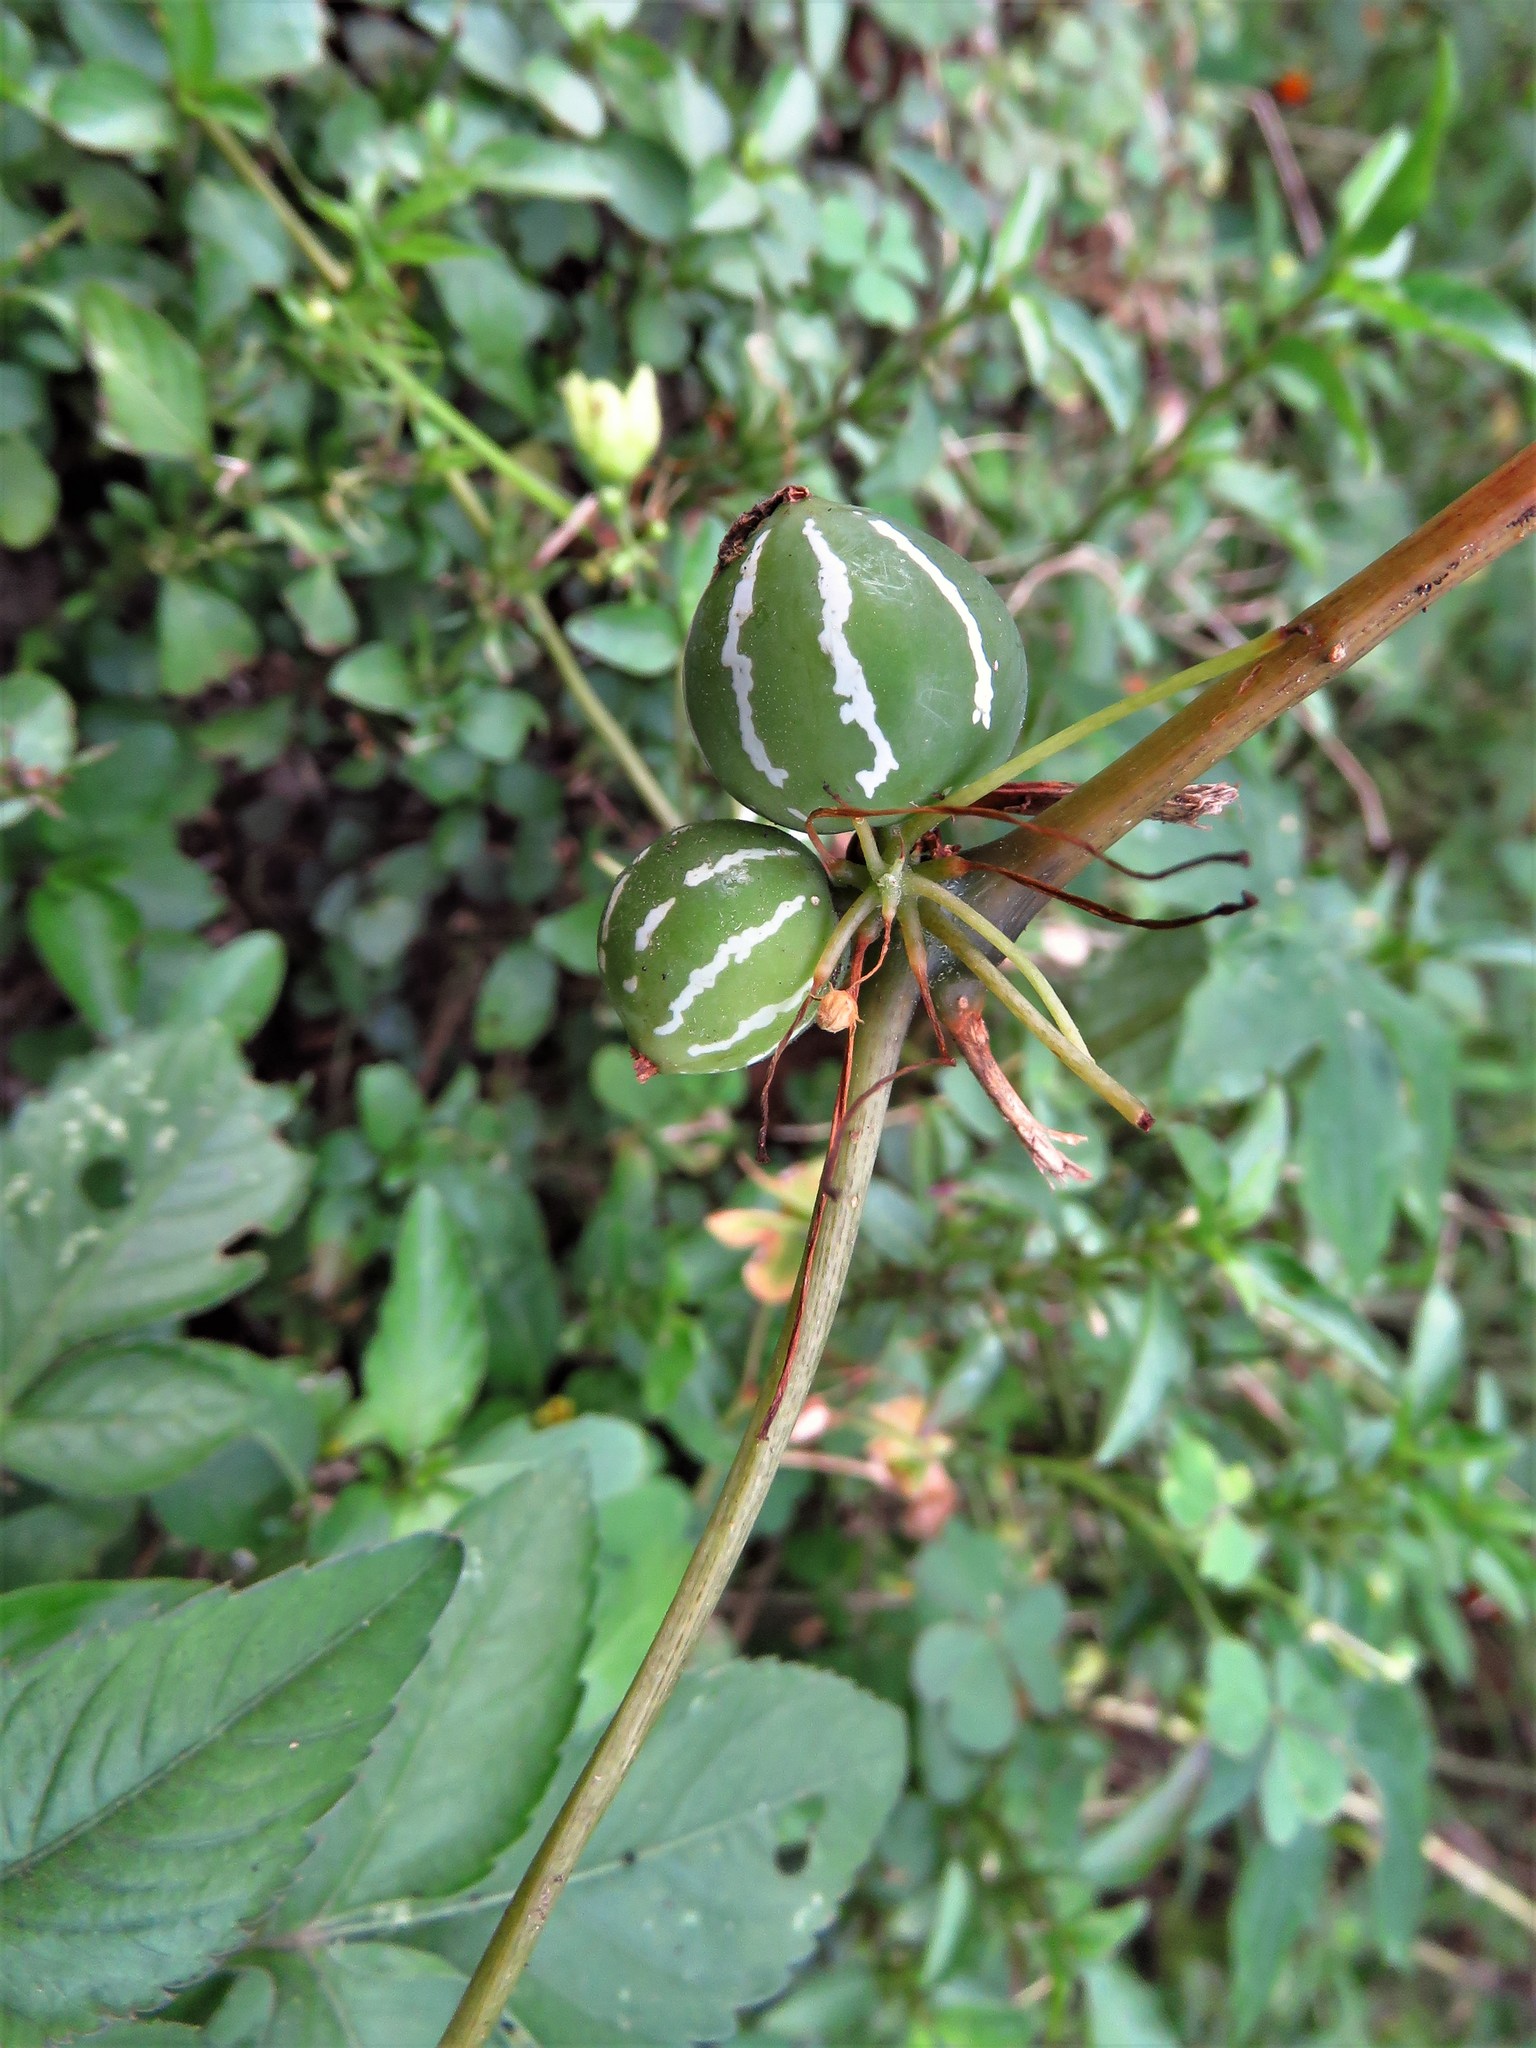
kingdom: Plantae
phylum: Tracheophyta
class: Magnoliopsida
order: Cucurbitales
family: Cucurbitaceae
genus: Diplocyclos
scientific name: Diplocyclos palmatus
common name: Striped-cucumber
